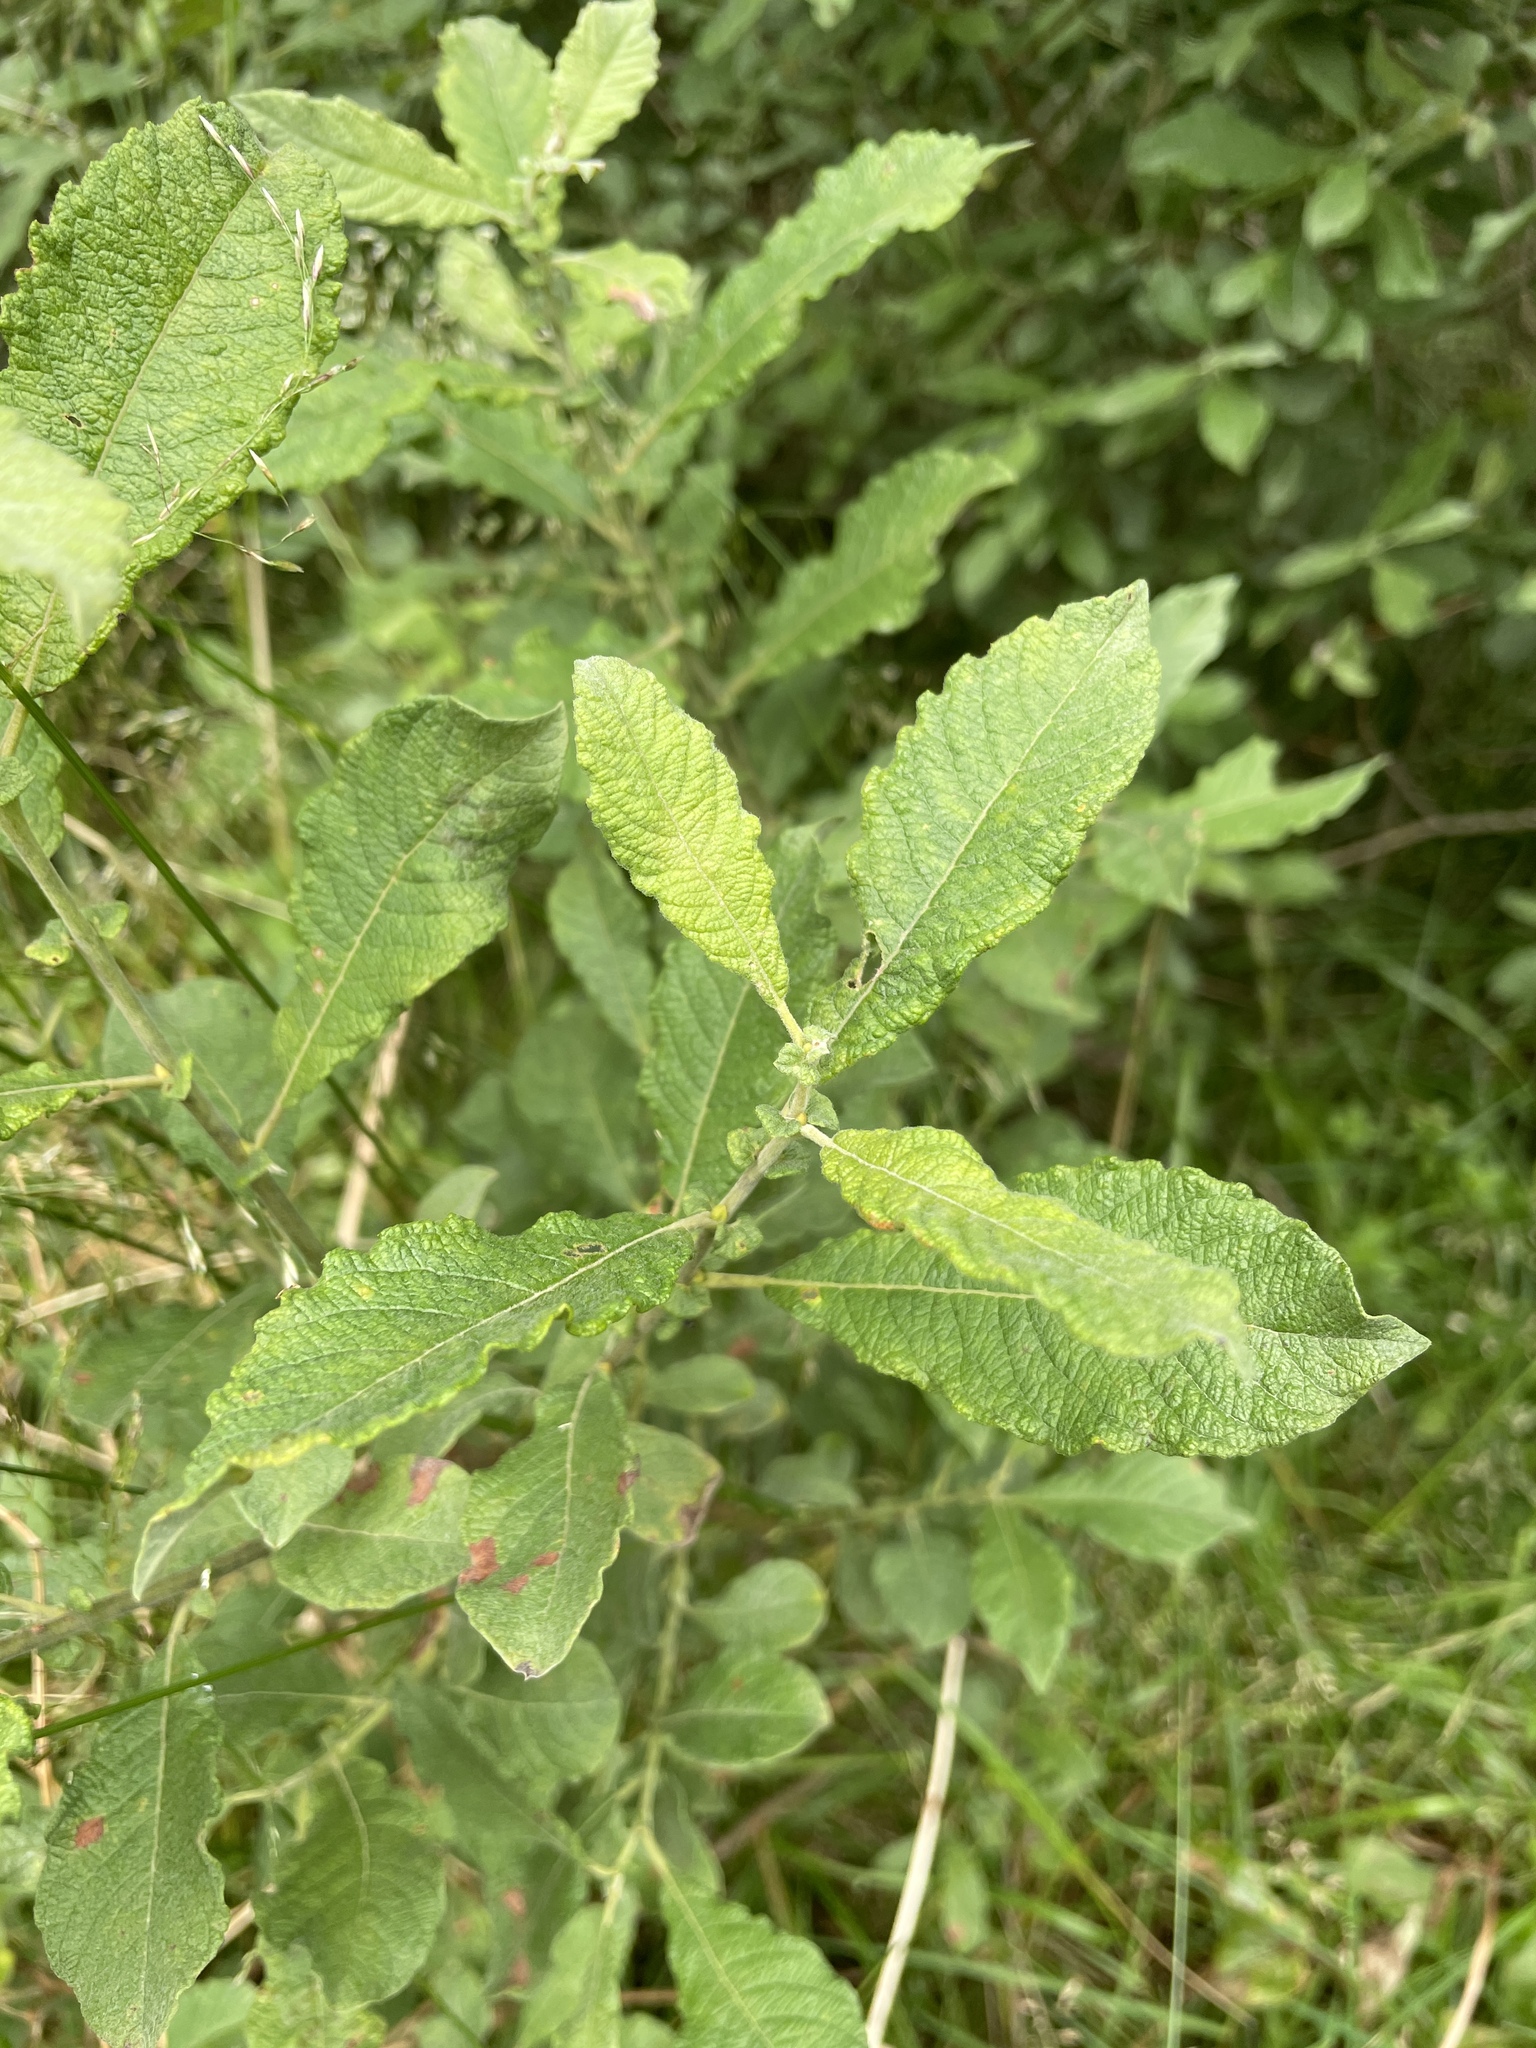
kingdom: Plantae
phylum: Tracheophyta
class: Magnoliopsida
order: Malpighiales
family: Salicaceae
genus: Salix
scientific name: Salix aurita
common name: Eared willow
